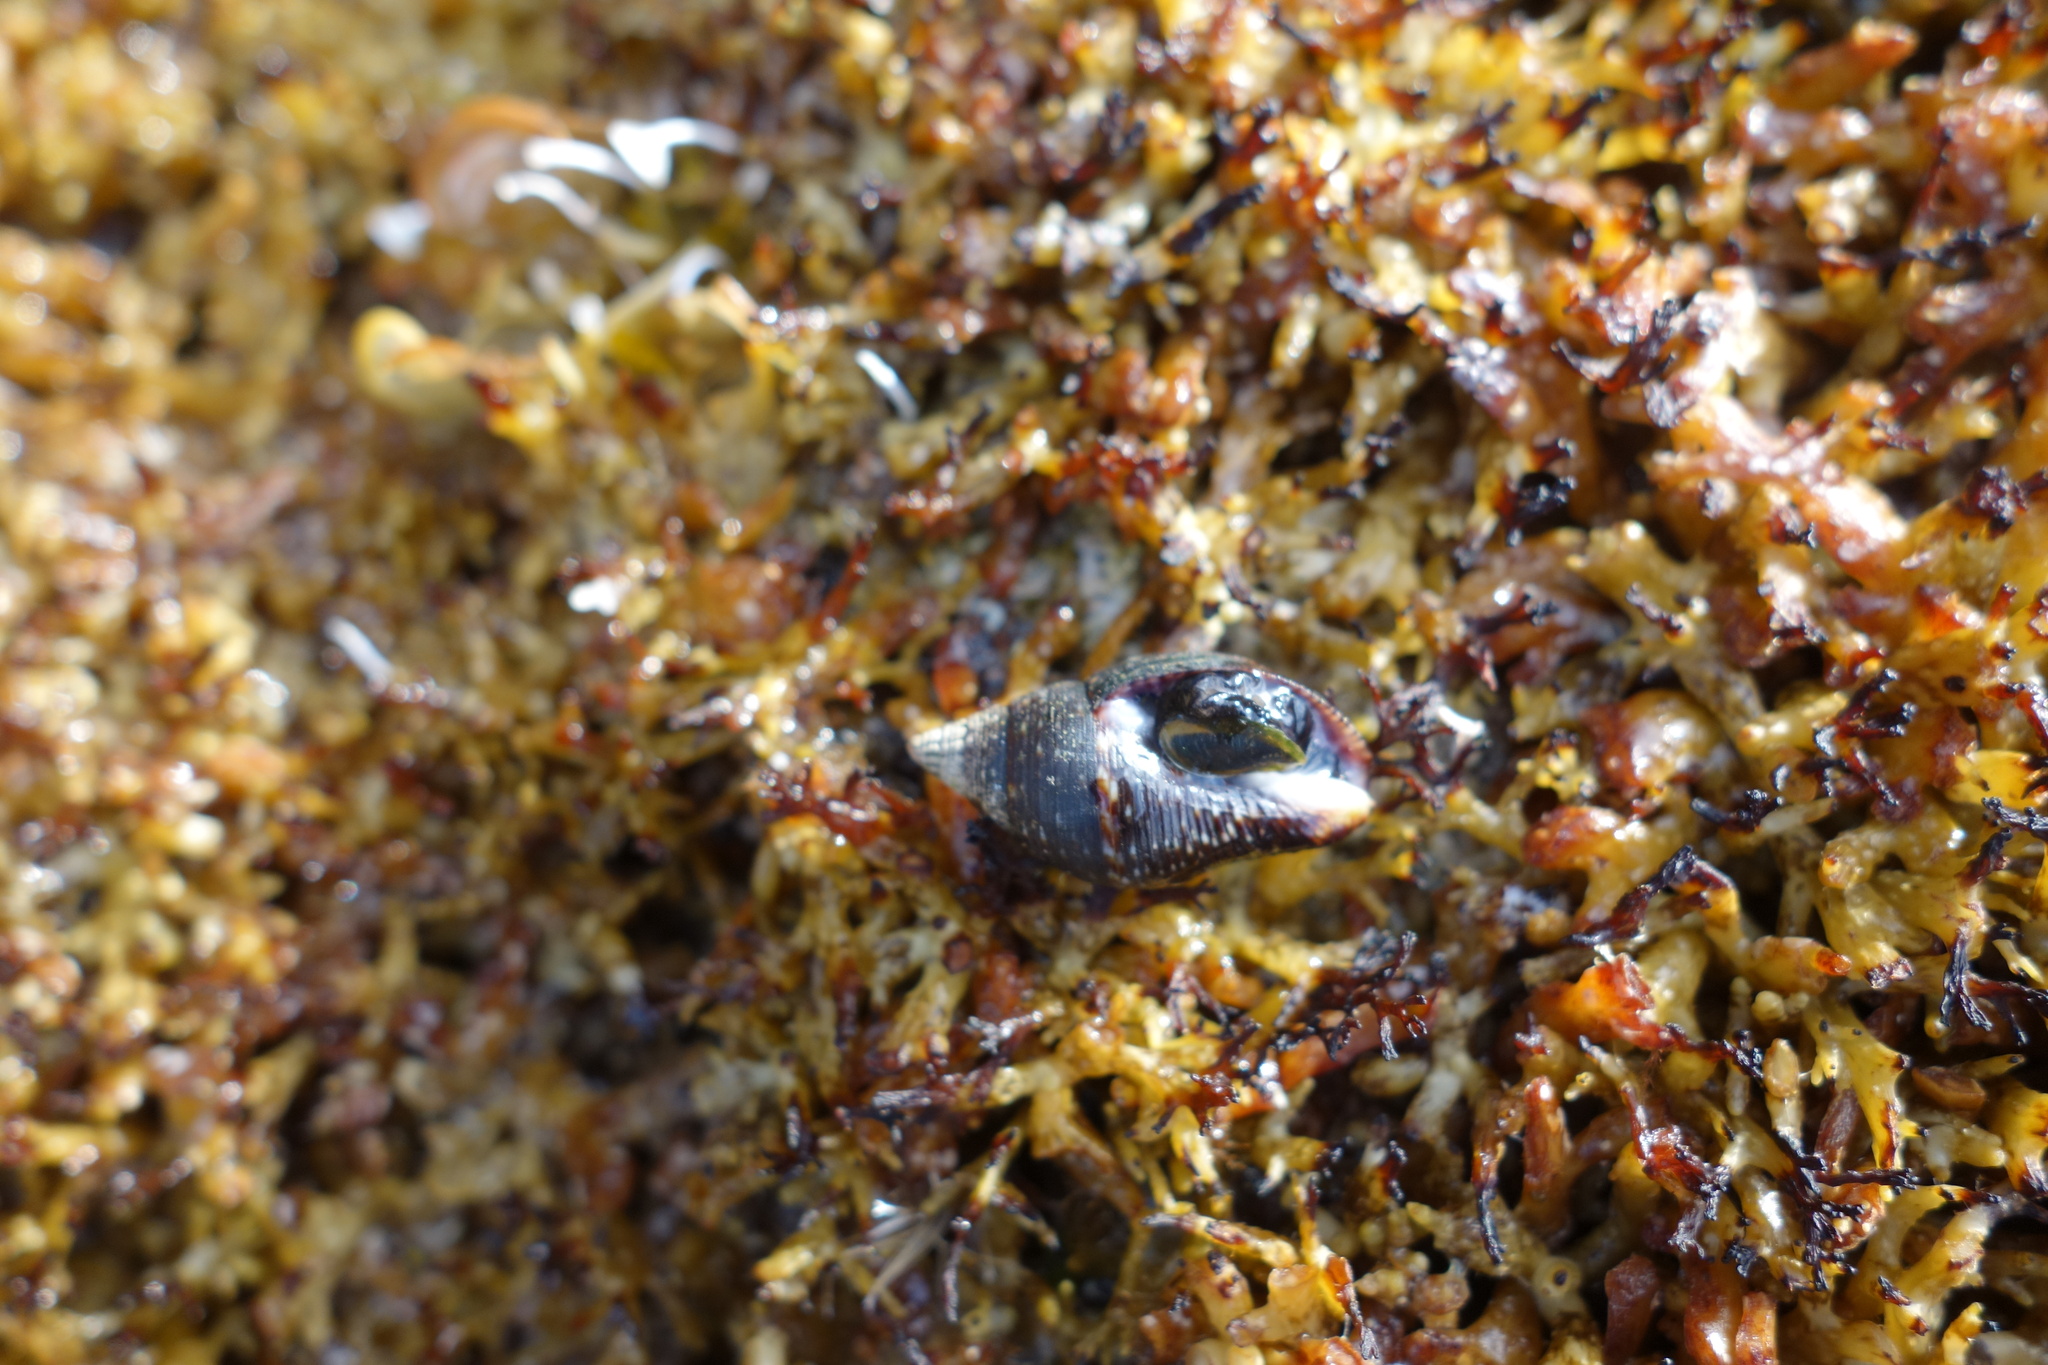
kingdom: Animalia
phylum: Mollusca
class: Gastropoda
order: Neogastropoda
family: Pisaniidae
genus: Pisania
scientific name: Pisania striata
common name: Spotted pisania
